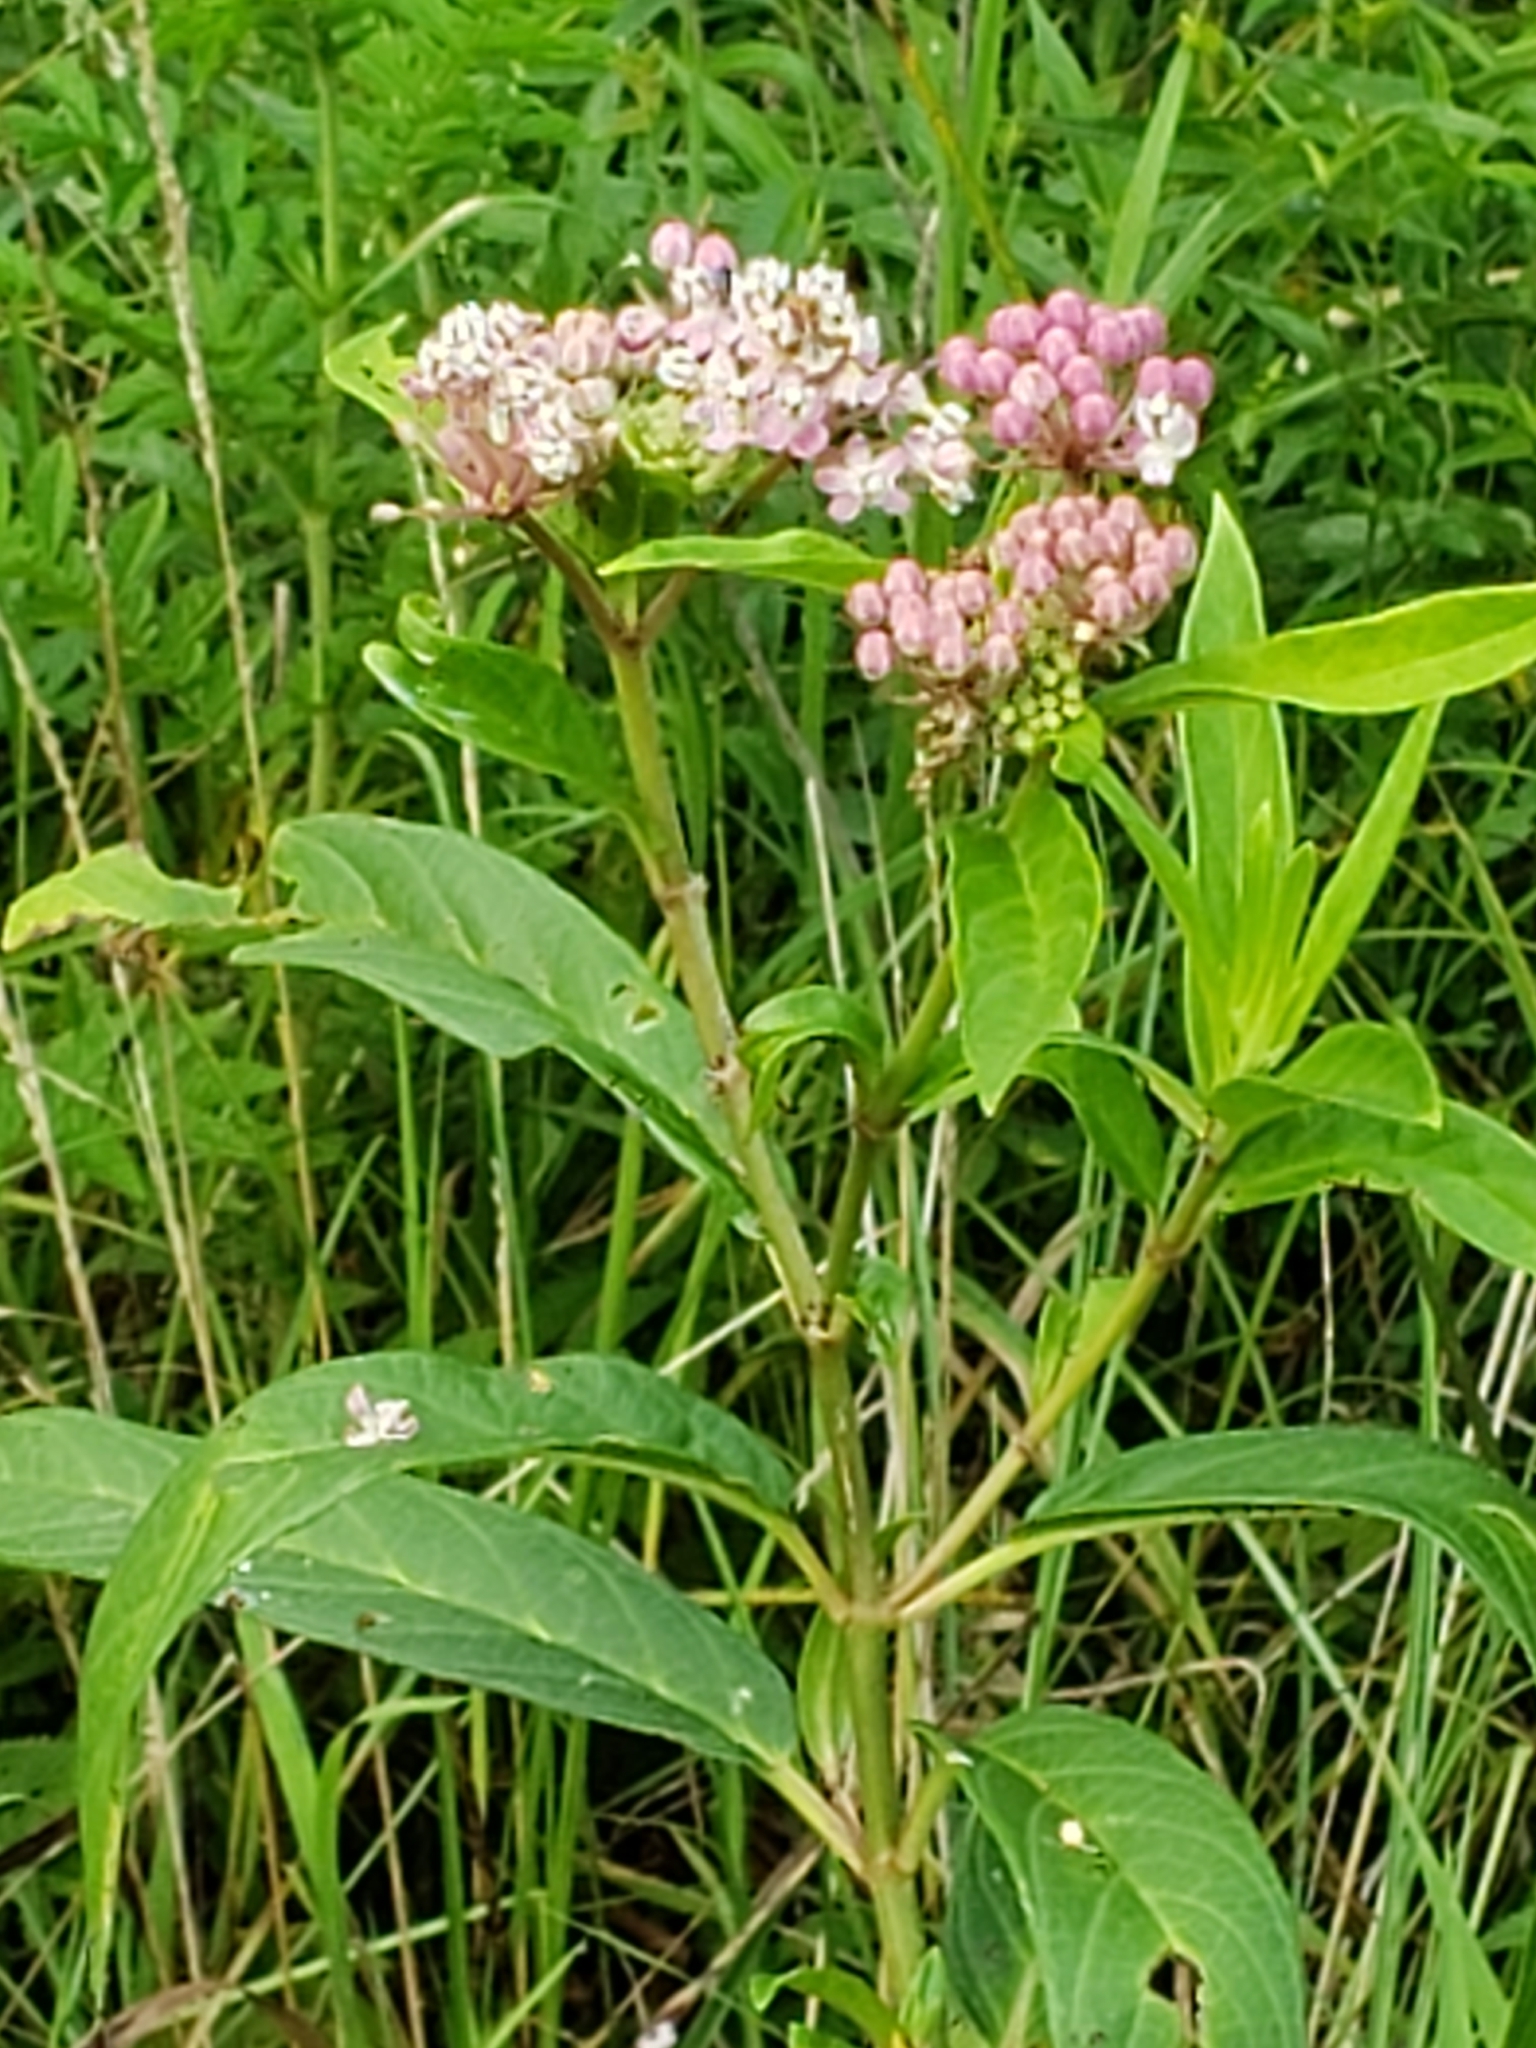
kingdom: Plantae
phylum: Tracheophyta
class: Magnoliopsida
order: Gentianales
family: Apocynaceae
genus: Asclepias
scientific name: Asclepias incarnata
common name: Swamp milkweed
